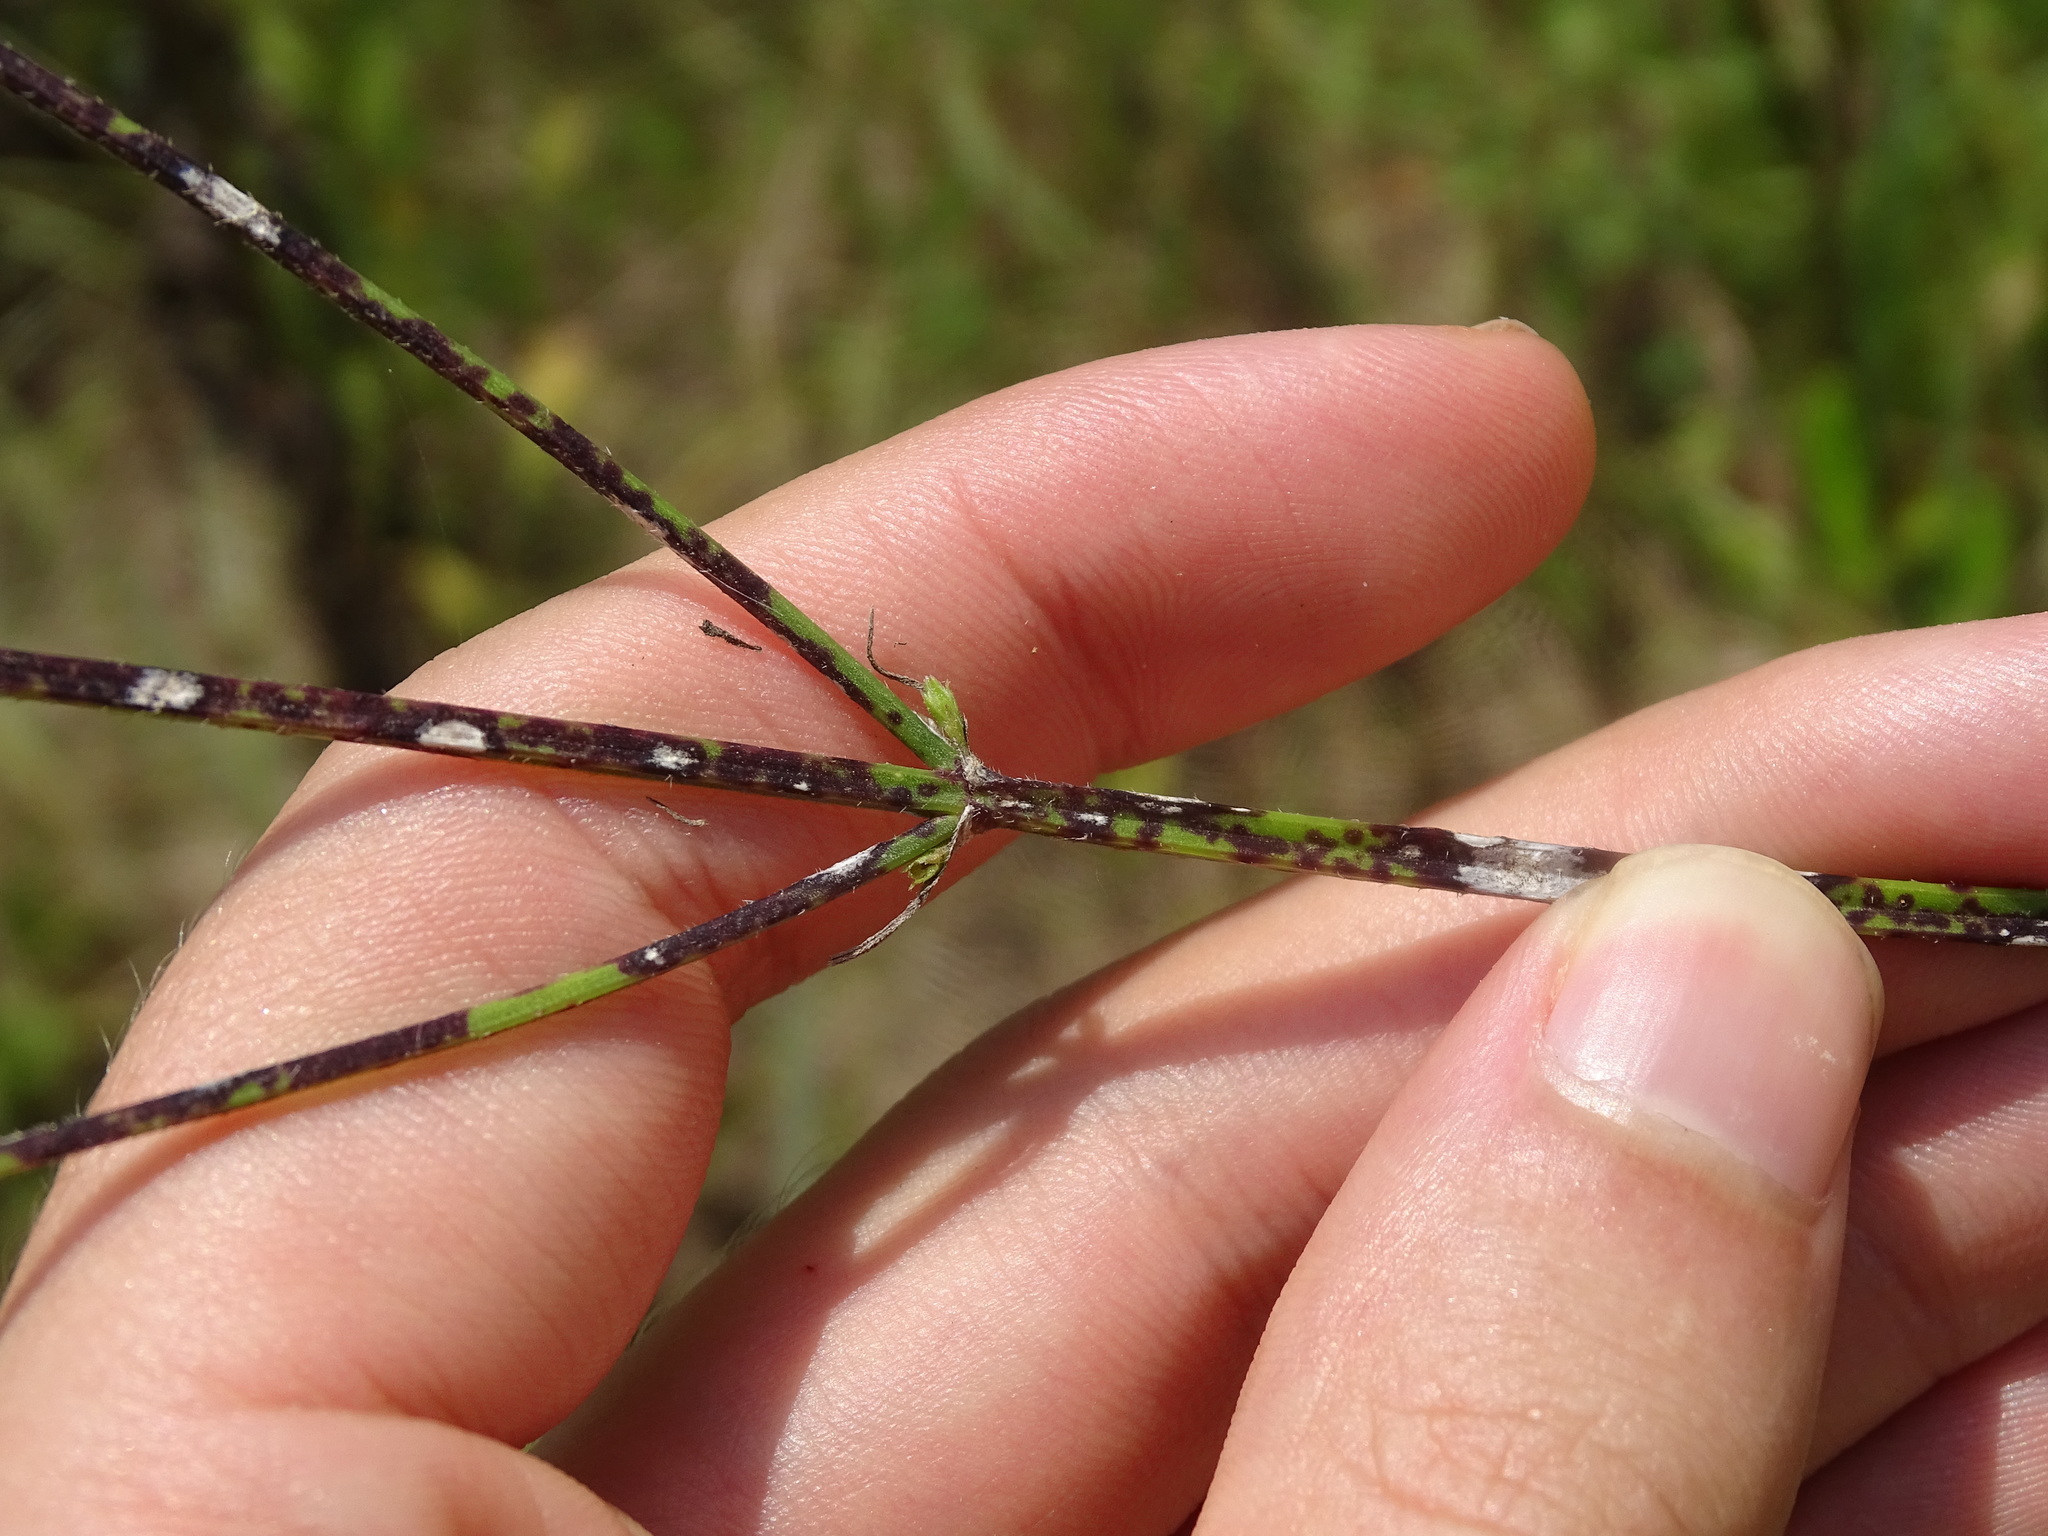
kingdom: Plantae
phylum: Tracheophyta
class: Magnoliopsida
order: Lamiales
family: Verbenaceae
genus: Verbena
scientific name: Verbena brasiliensis
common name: Brazilian vervain
